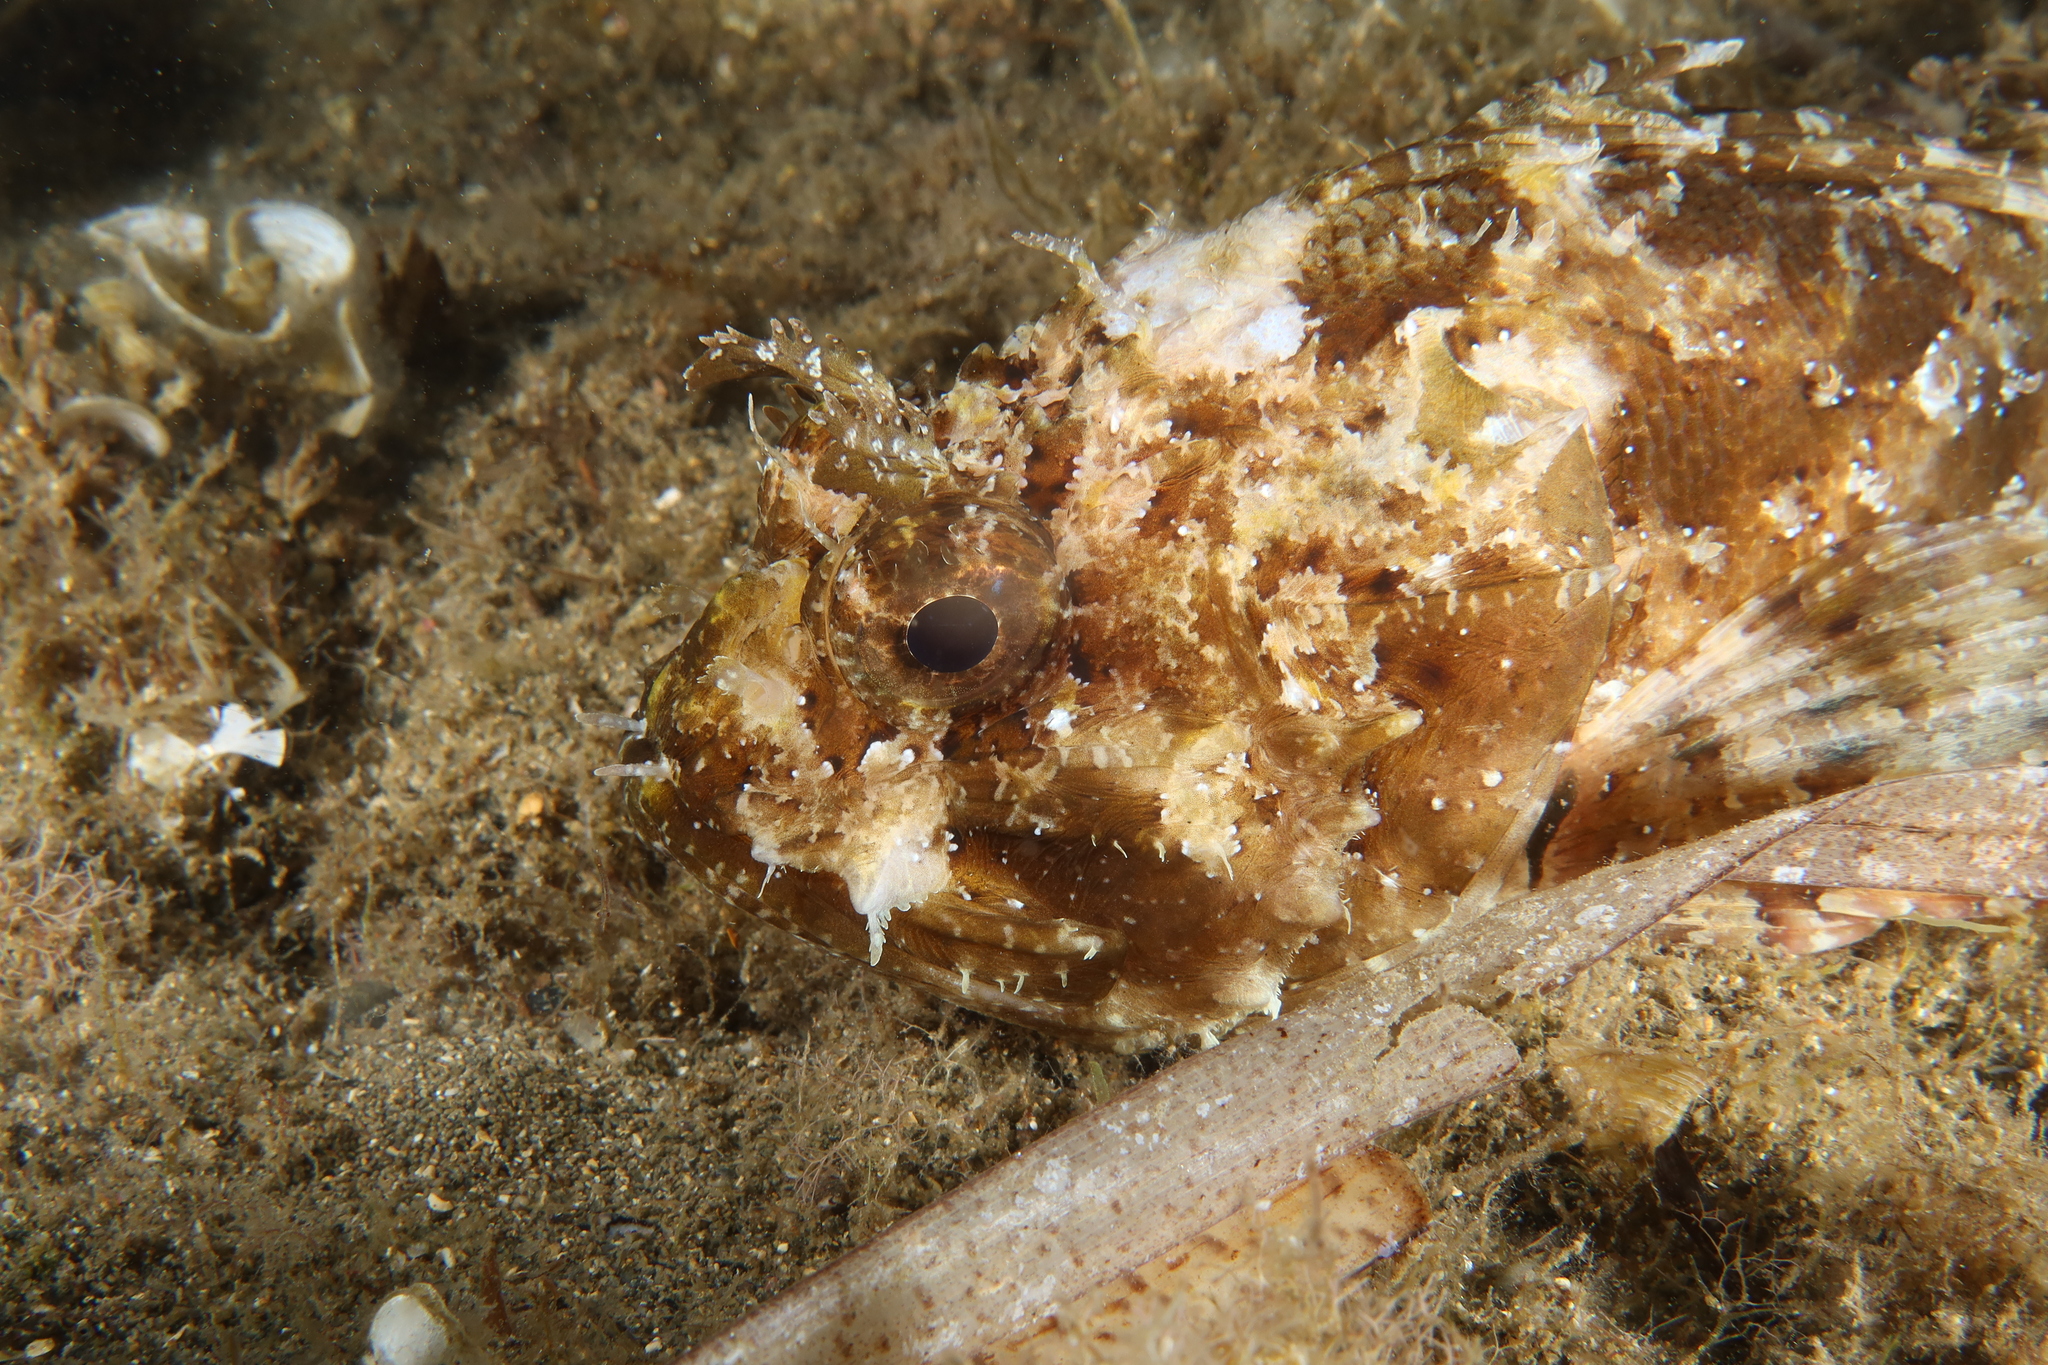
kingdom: Animalia
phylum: Chordata
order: Scorpaeniformes
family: Scorpaenidae
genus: Scorpaena
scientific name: Scorpaena porcus
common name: Black scorpionfish
